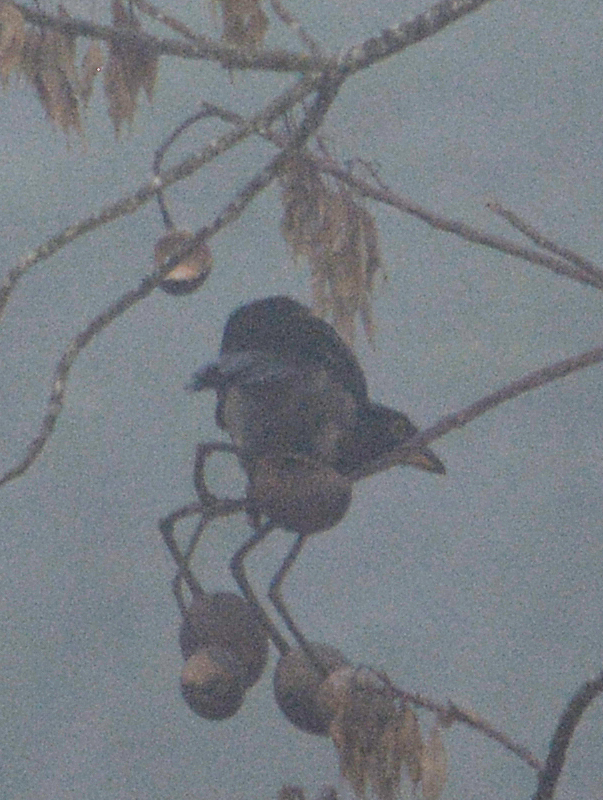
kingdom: Animalia
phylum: Chordata
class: Aves
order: Passeriformes
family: Corvidae
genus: Psilorhinus
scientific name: Psilorhinus morio
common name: Brown jay
